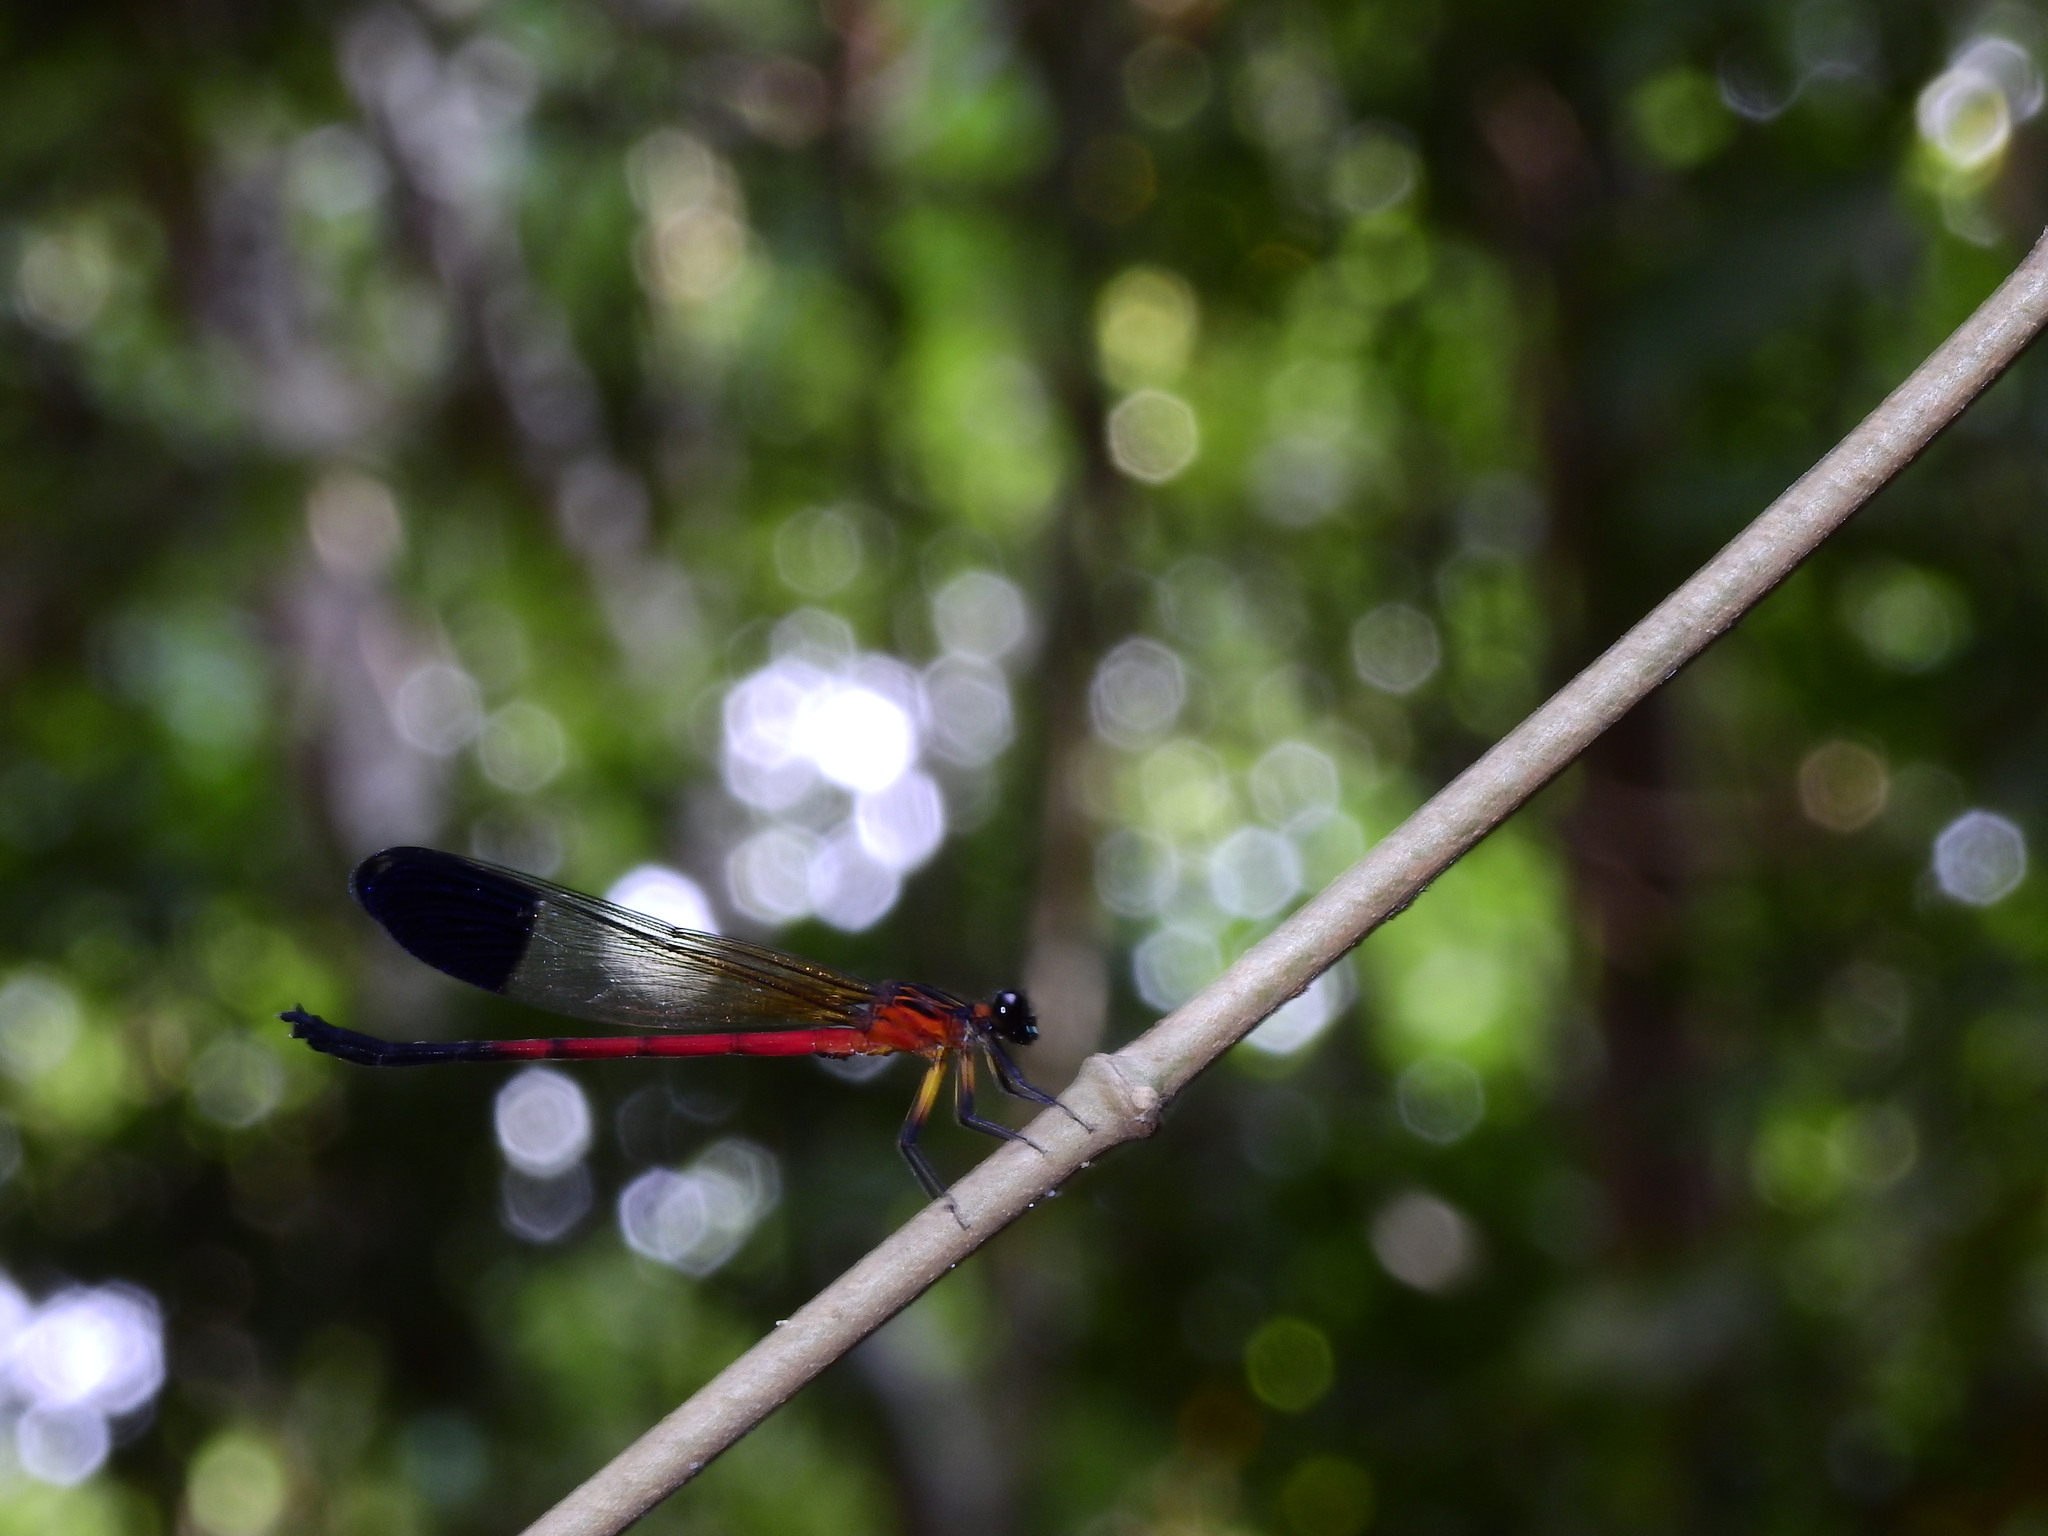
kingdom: Animalia
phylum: Arthropoda
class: Insecta
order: Odonata
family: Euphaeidae
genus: Euphaea
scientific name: Euphaea dispar
